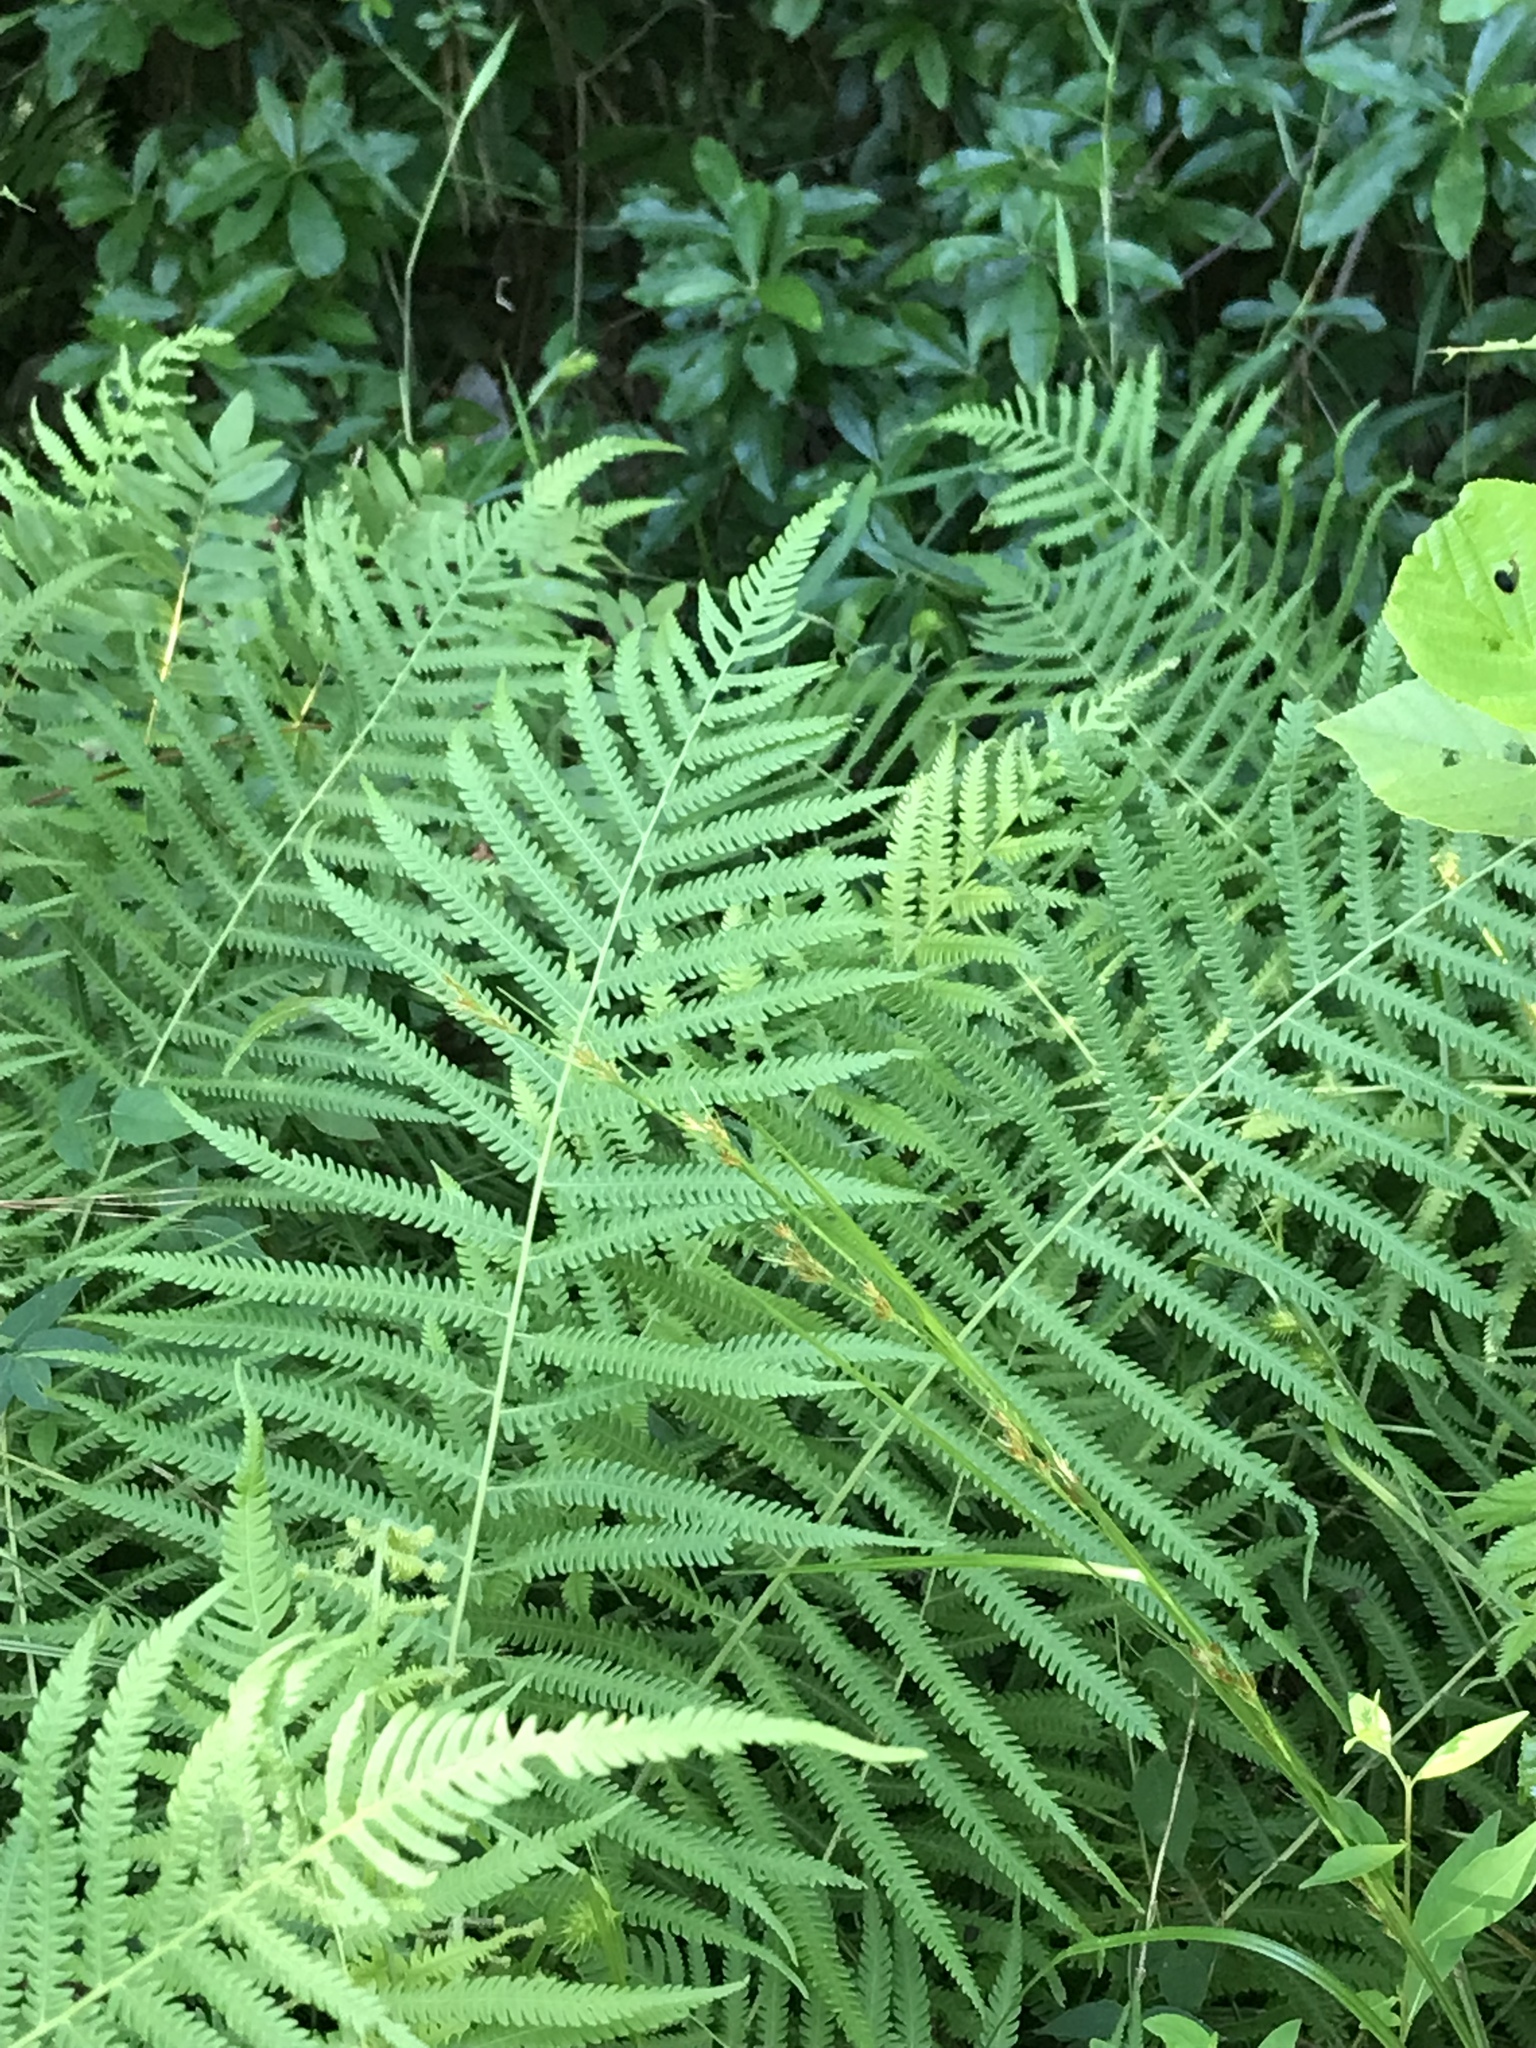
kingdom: Plantae
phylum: Tracheophyta
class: Polypodiopsida
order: Polypodiales
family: Thelypteridaceae
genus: Pelazoneuron
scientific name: Pelazoneuron kunthii
